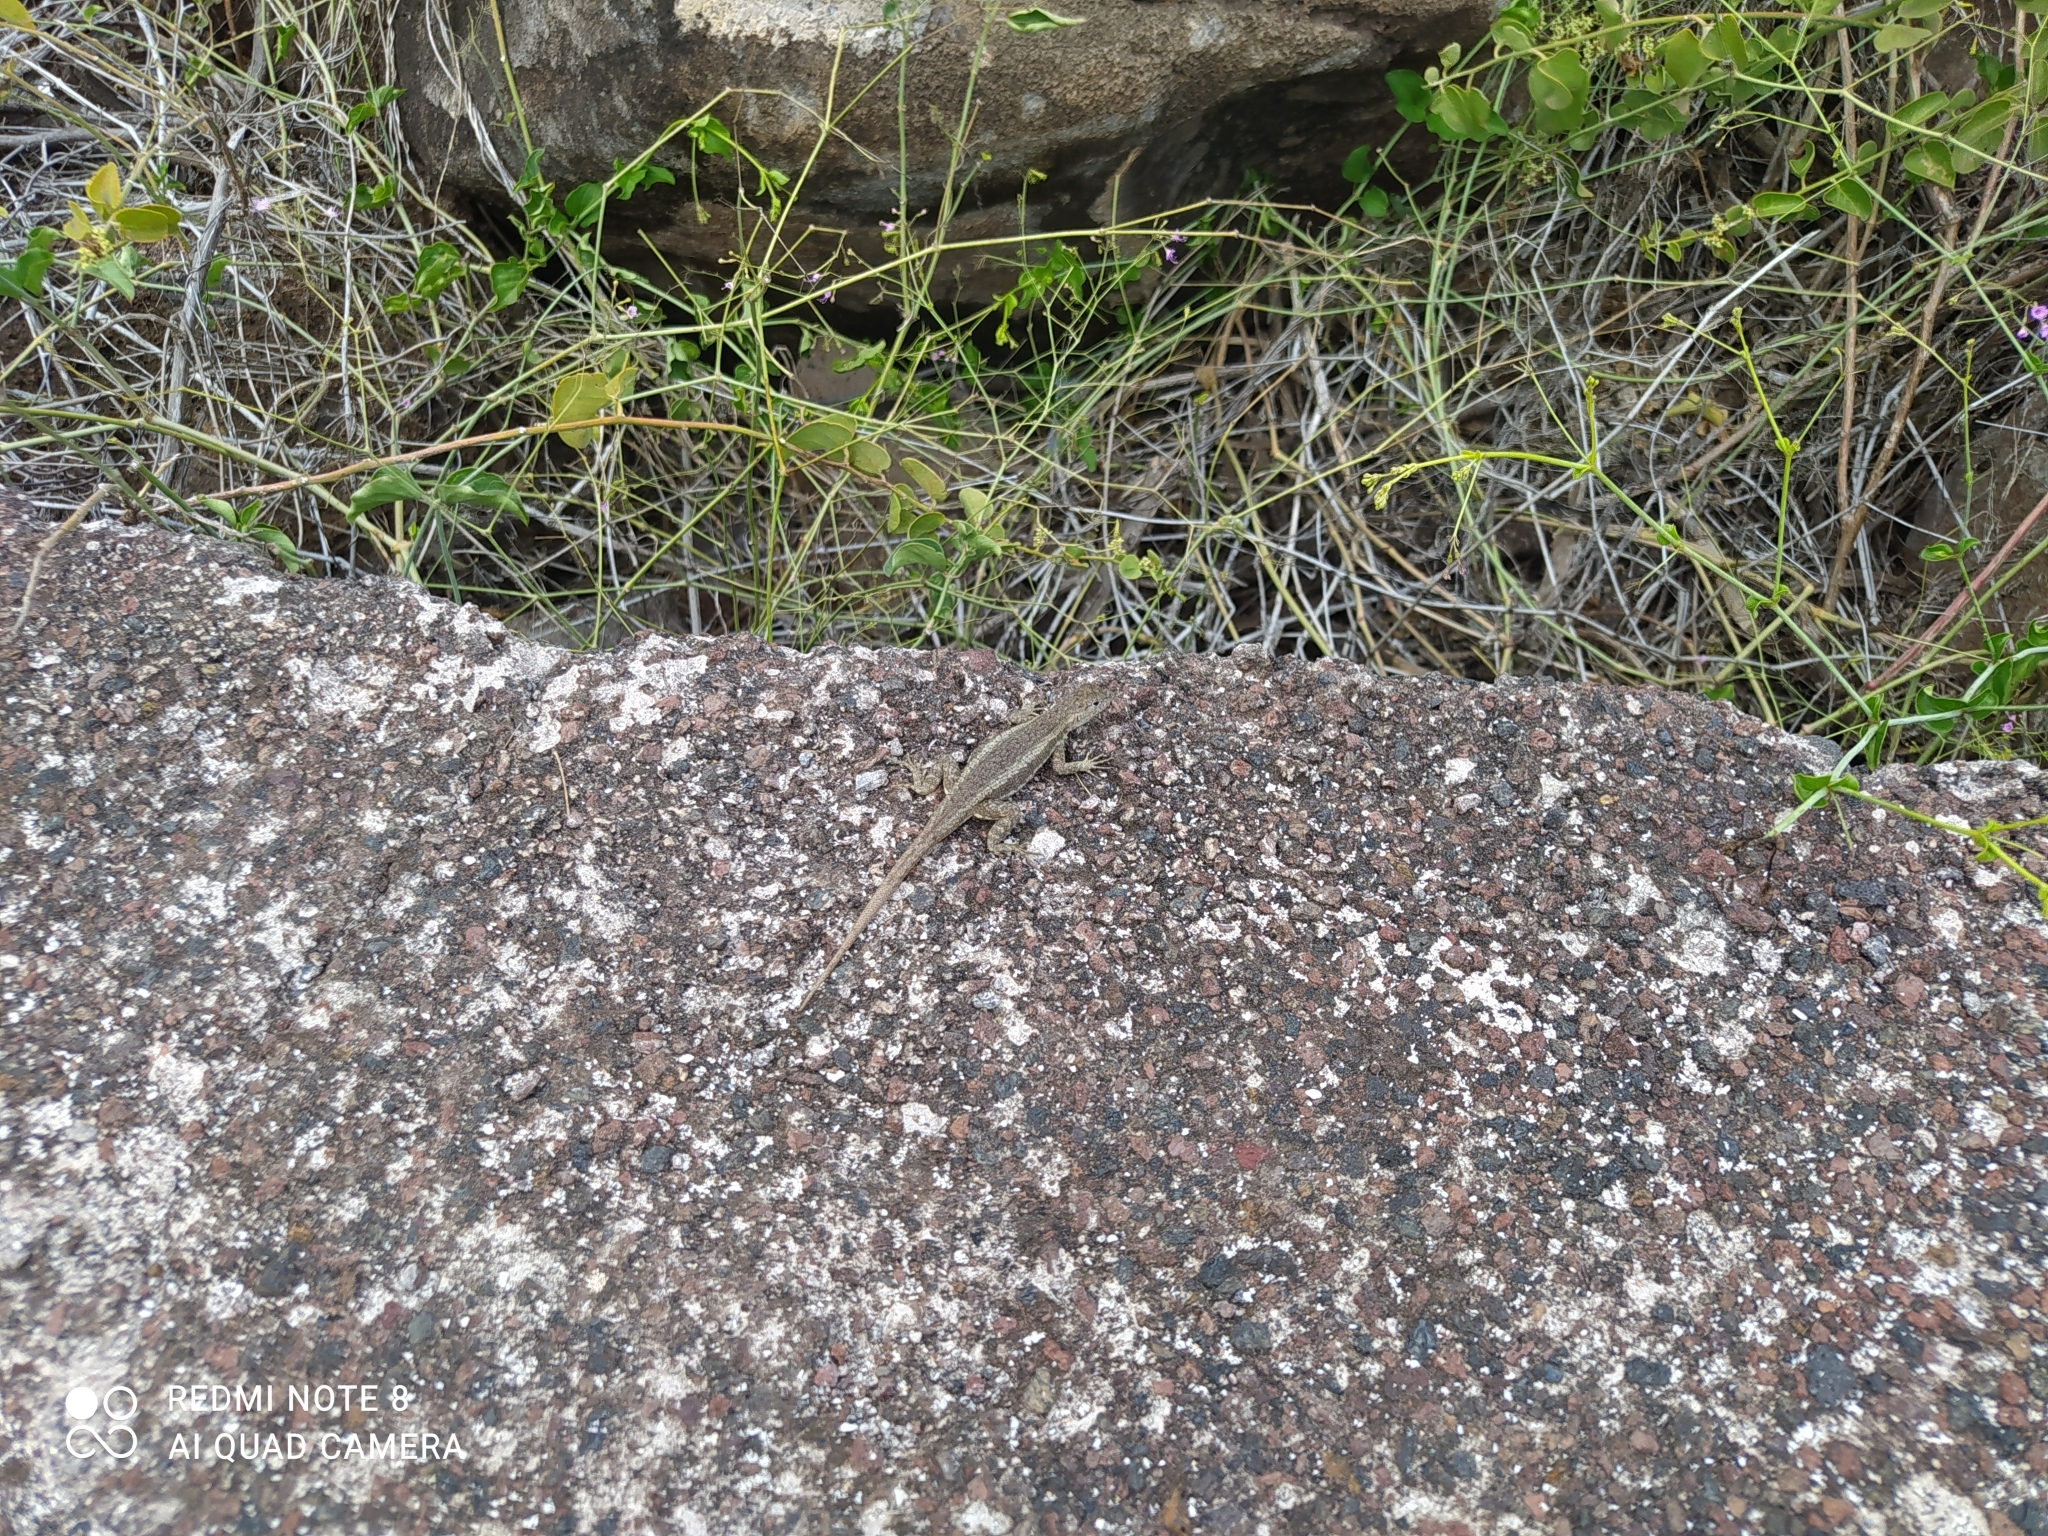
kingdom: Animalia
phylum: Chordata
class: Squamata
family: Tropiduridae
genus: Microlophus
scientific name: Microlophus bivittatus
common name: San cristobal lava lizard
